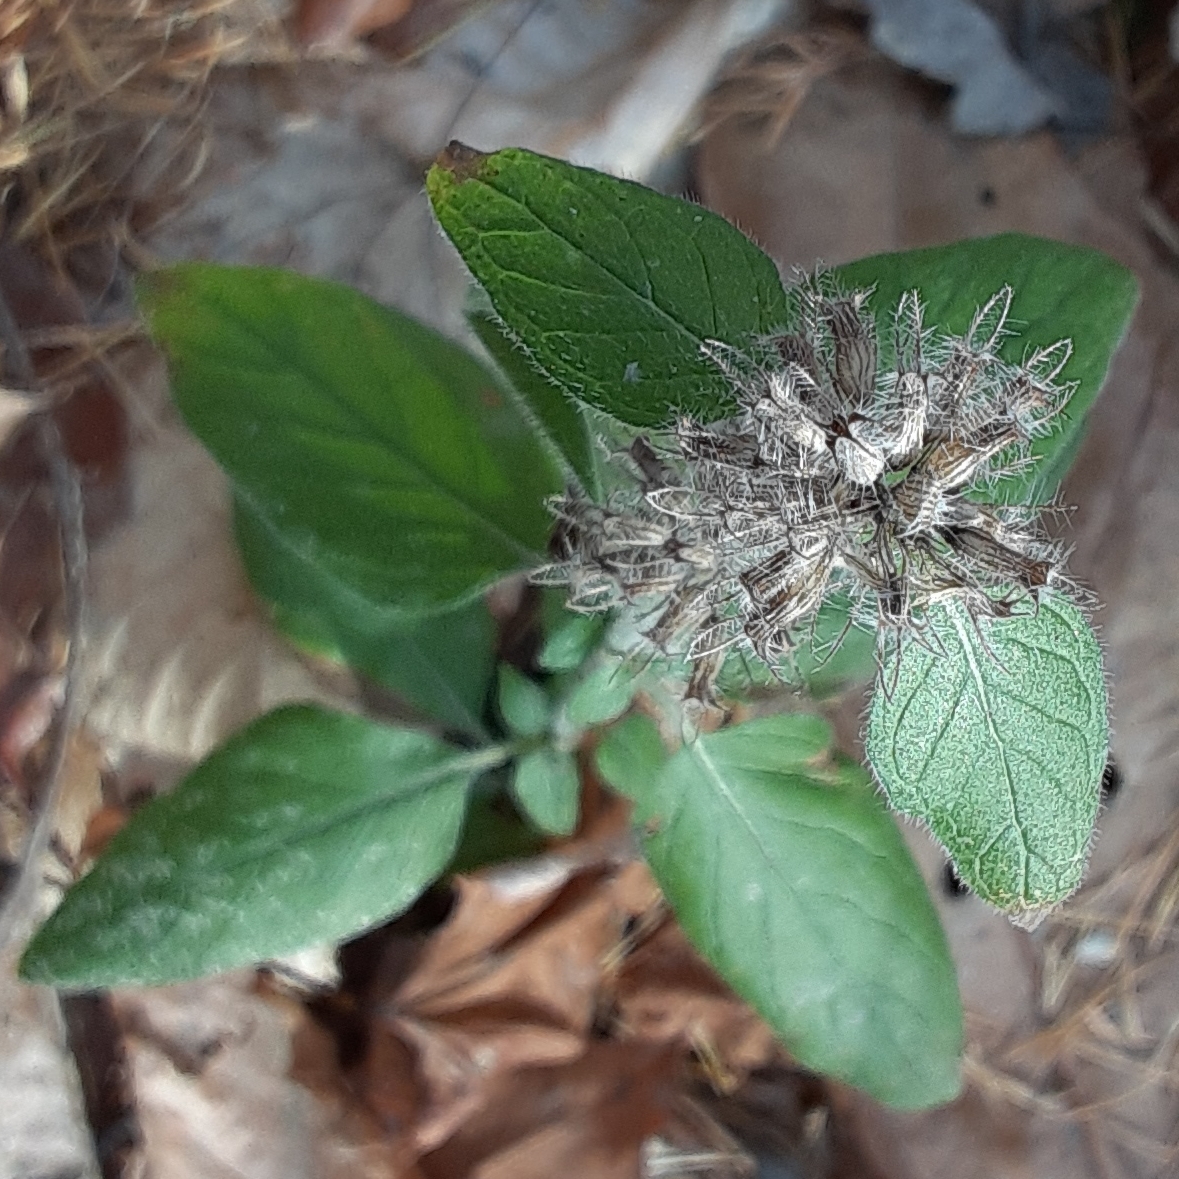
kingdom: Plantae
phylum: Tracheophyta
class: Magnoliopsida
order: Lamiales
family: Lamiaceae
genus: Clinopodium
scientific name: Clinopodium vulgare
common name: Wild basil
